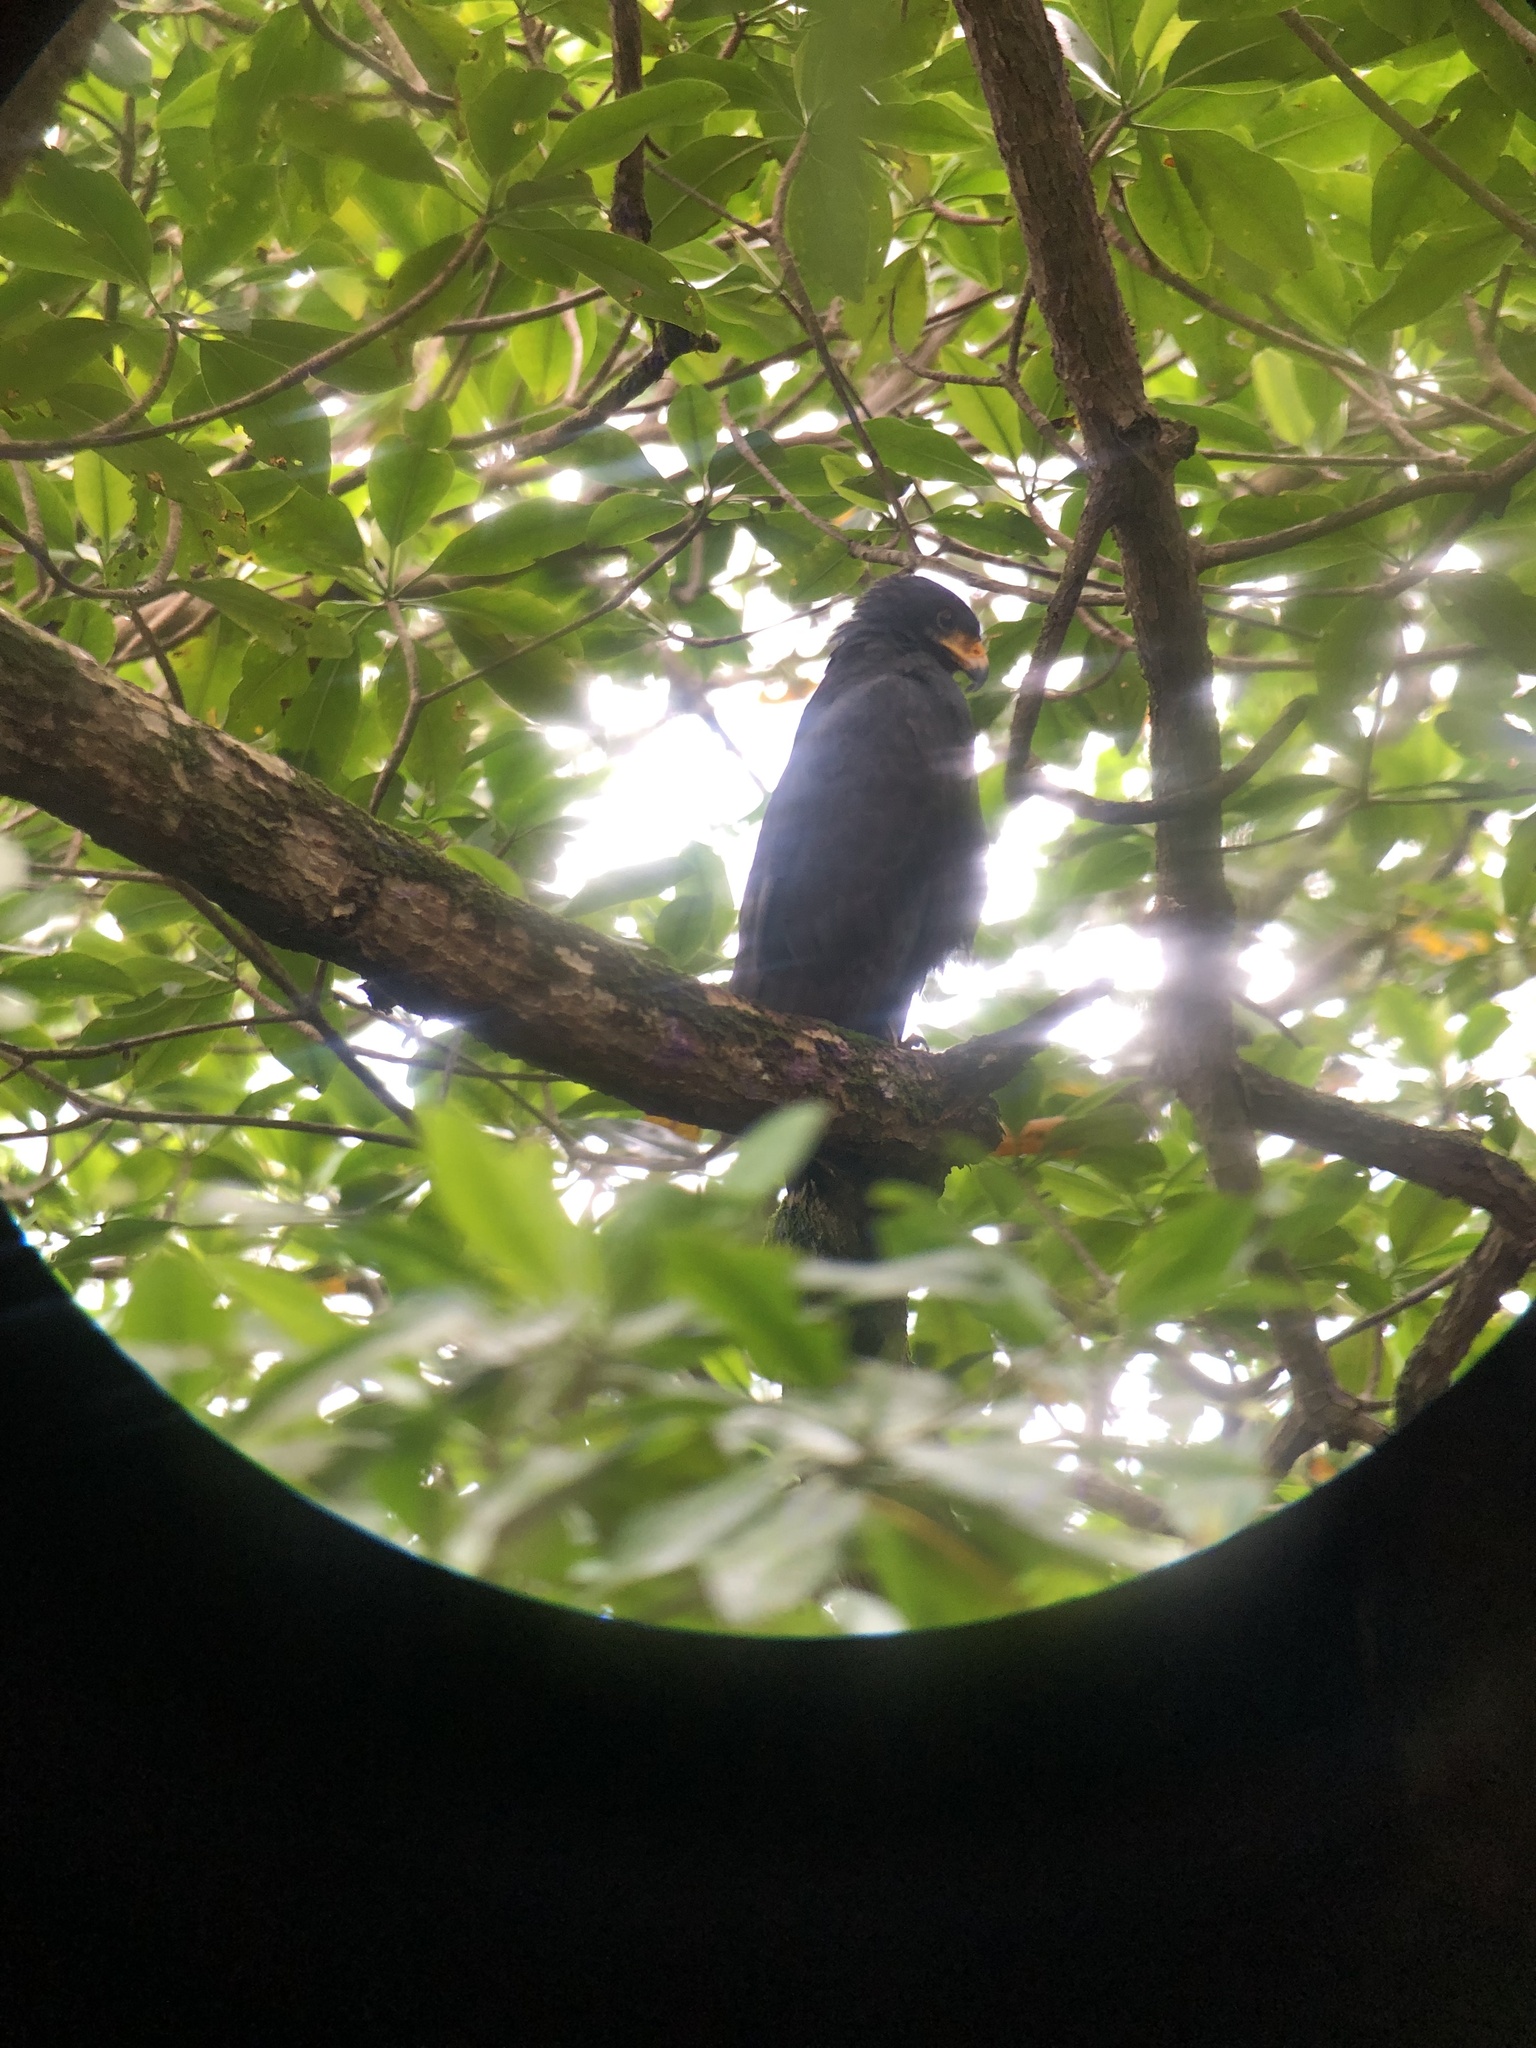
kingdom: Animalia
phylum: Chordata
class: Aves
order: Accipitriformes
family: Accipitridae
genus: Buteogallus
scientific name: Buteogallus anthracinus
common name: Common black hawk
